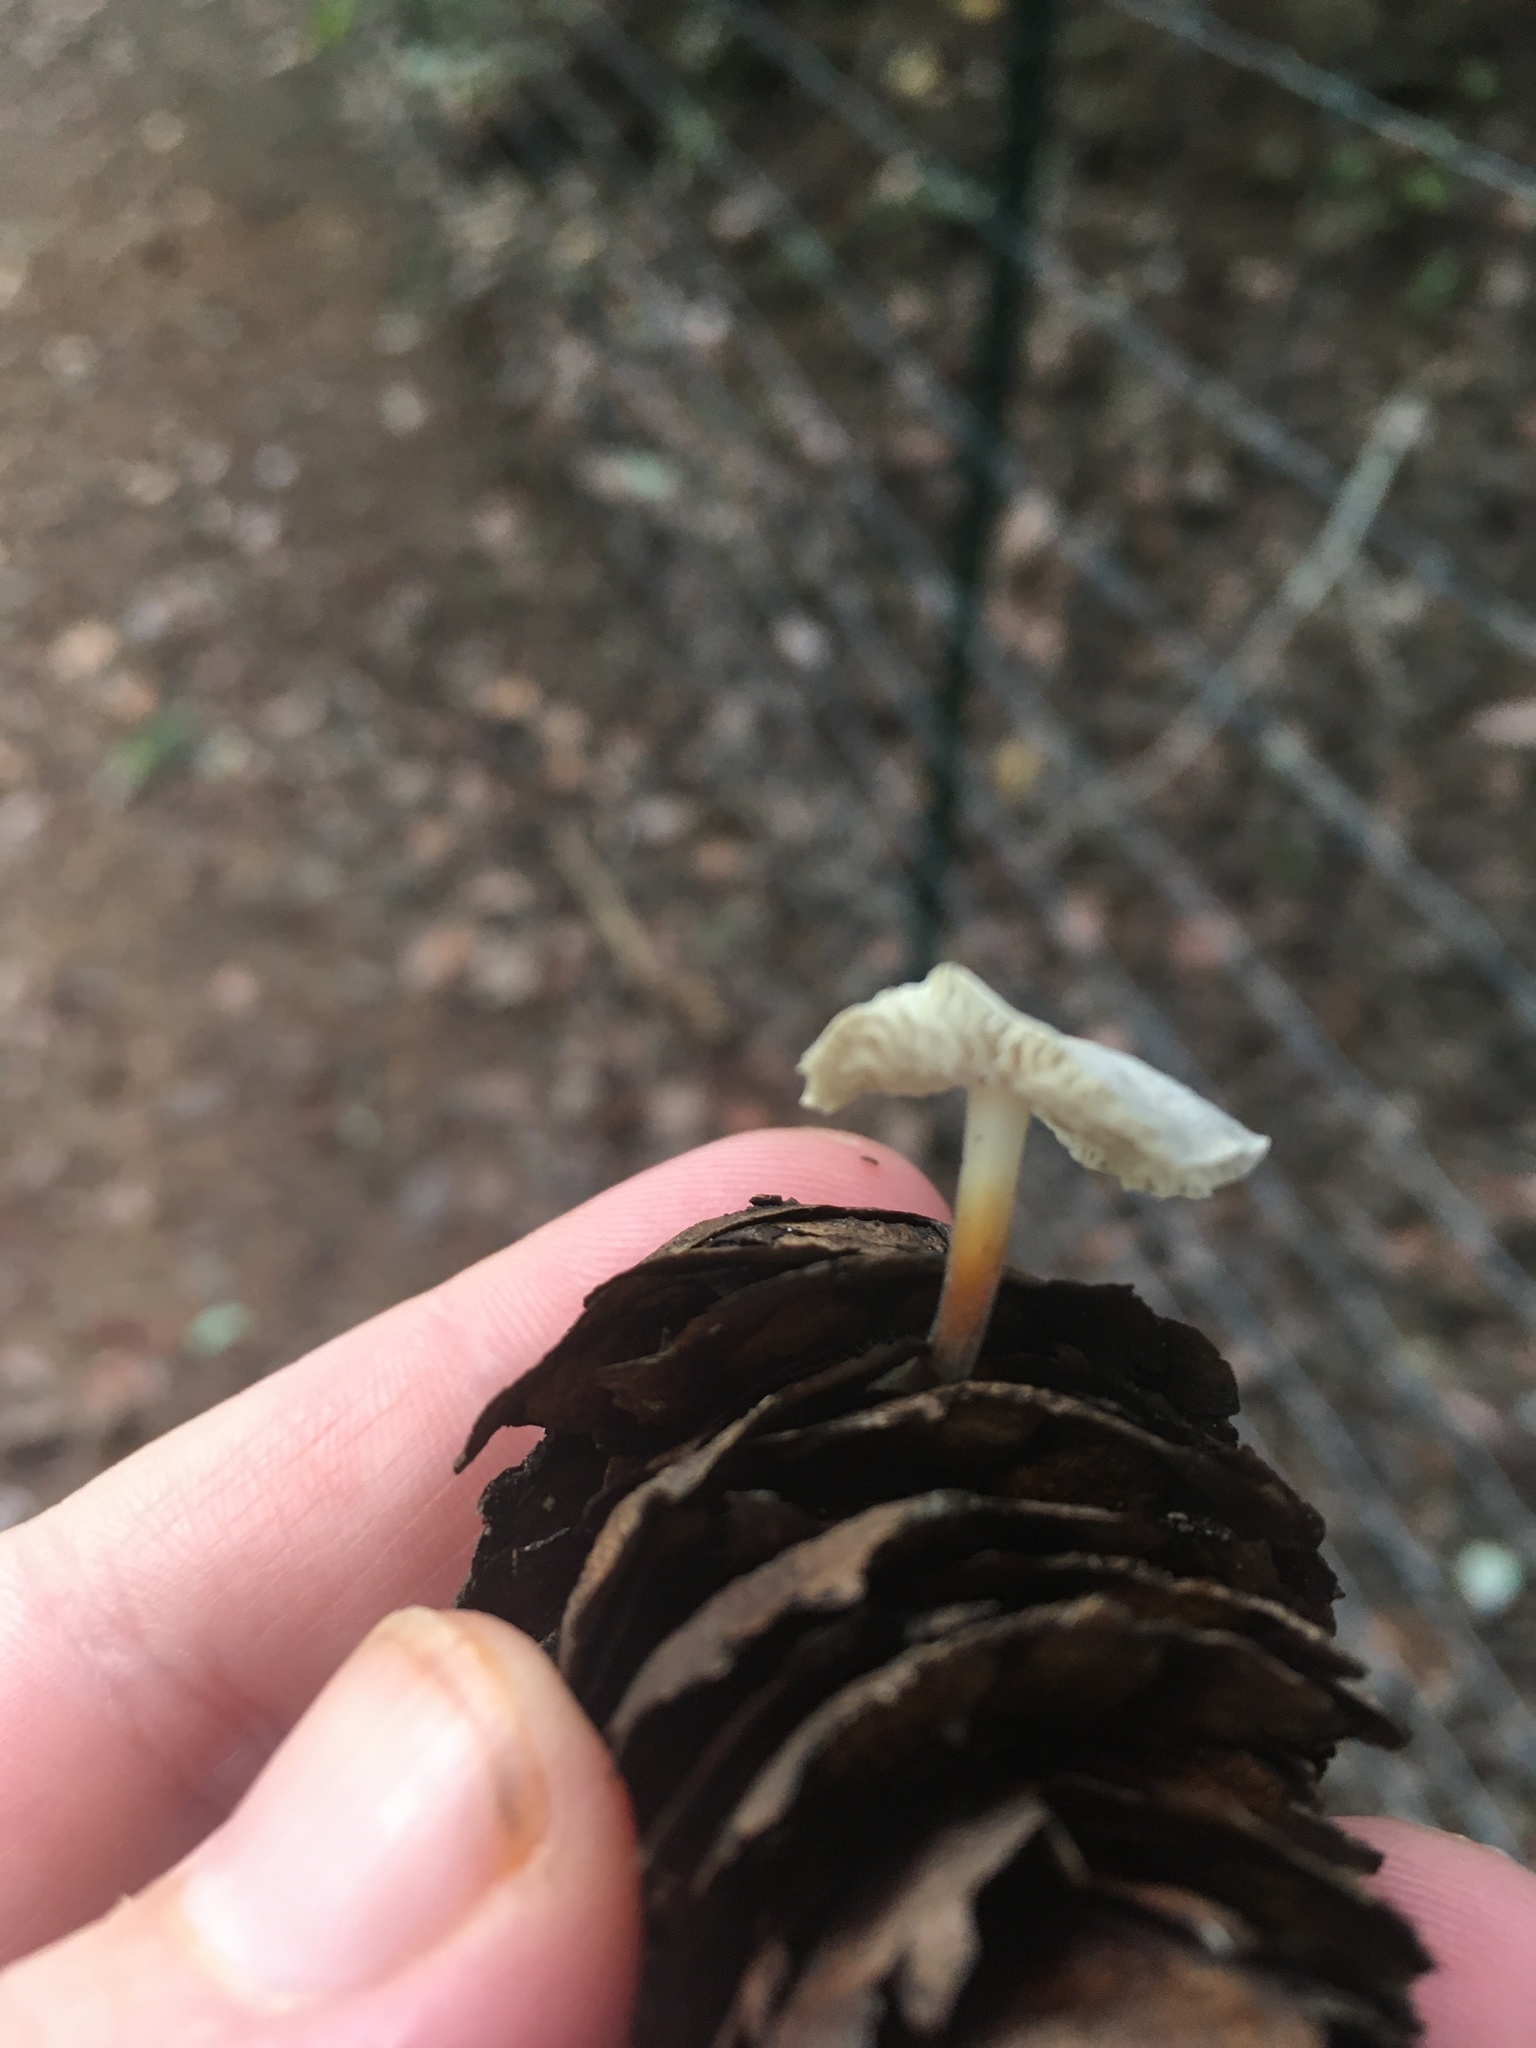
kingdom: Fungi
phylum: Basidiomycota
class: Agaricomycetes
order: Agaricales
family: Physalacriaceae
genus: Strobilurus
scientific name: Strobilurus trullisatus
